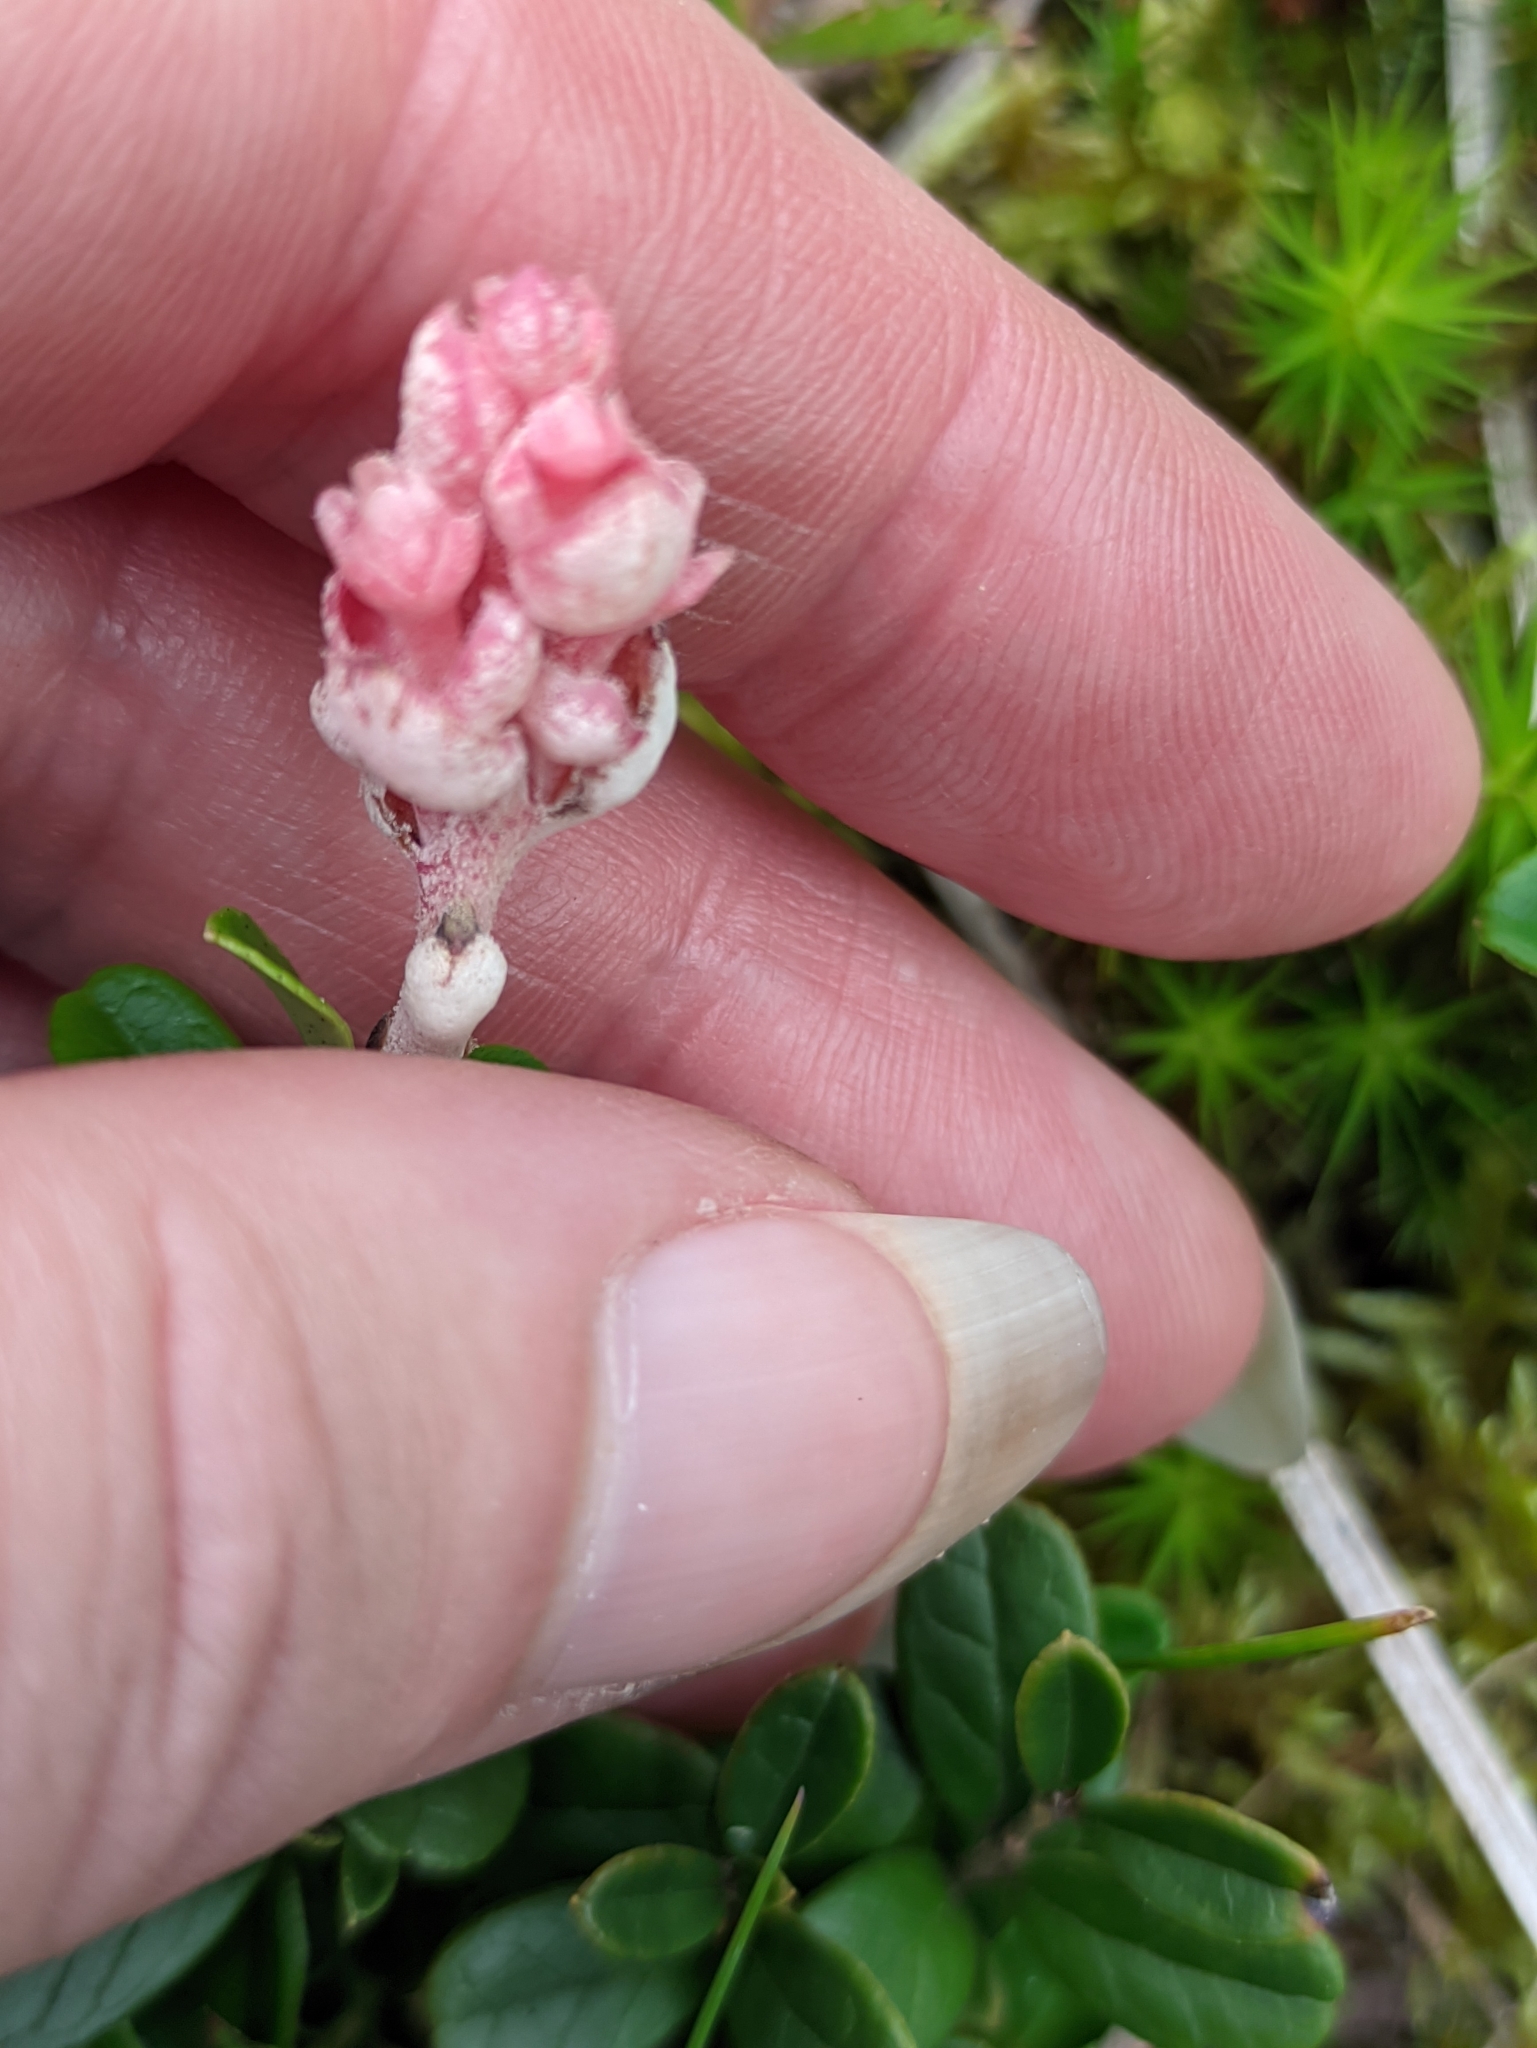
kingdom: Fungi
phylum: Basidiomycota
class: Exobasidiomycetes
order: Exobasidiales
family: Exobasidiaceae
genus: Exobasidium
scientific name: Exobasidium vaccinii
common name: Cowberry redleaf
